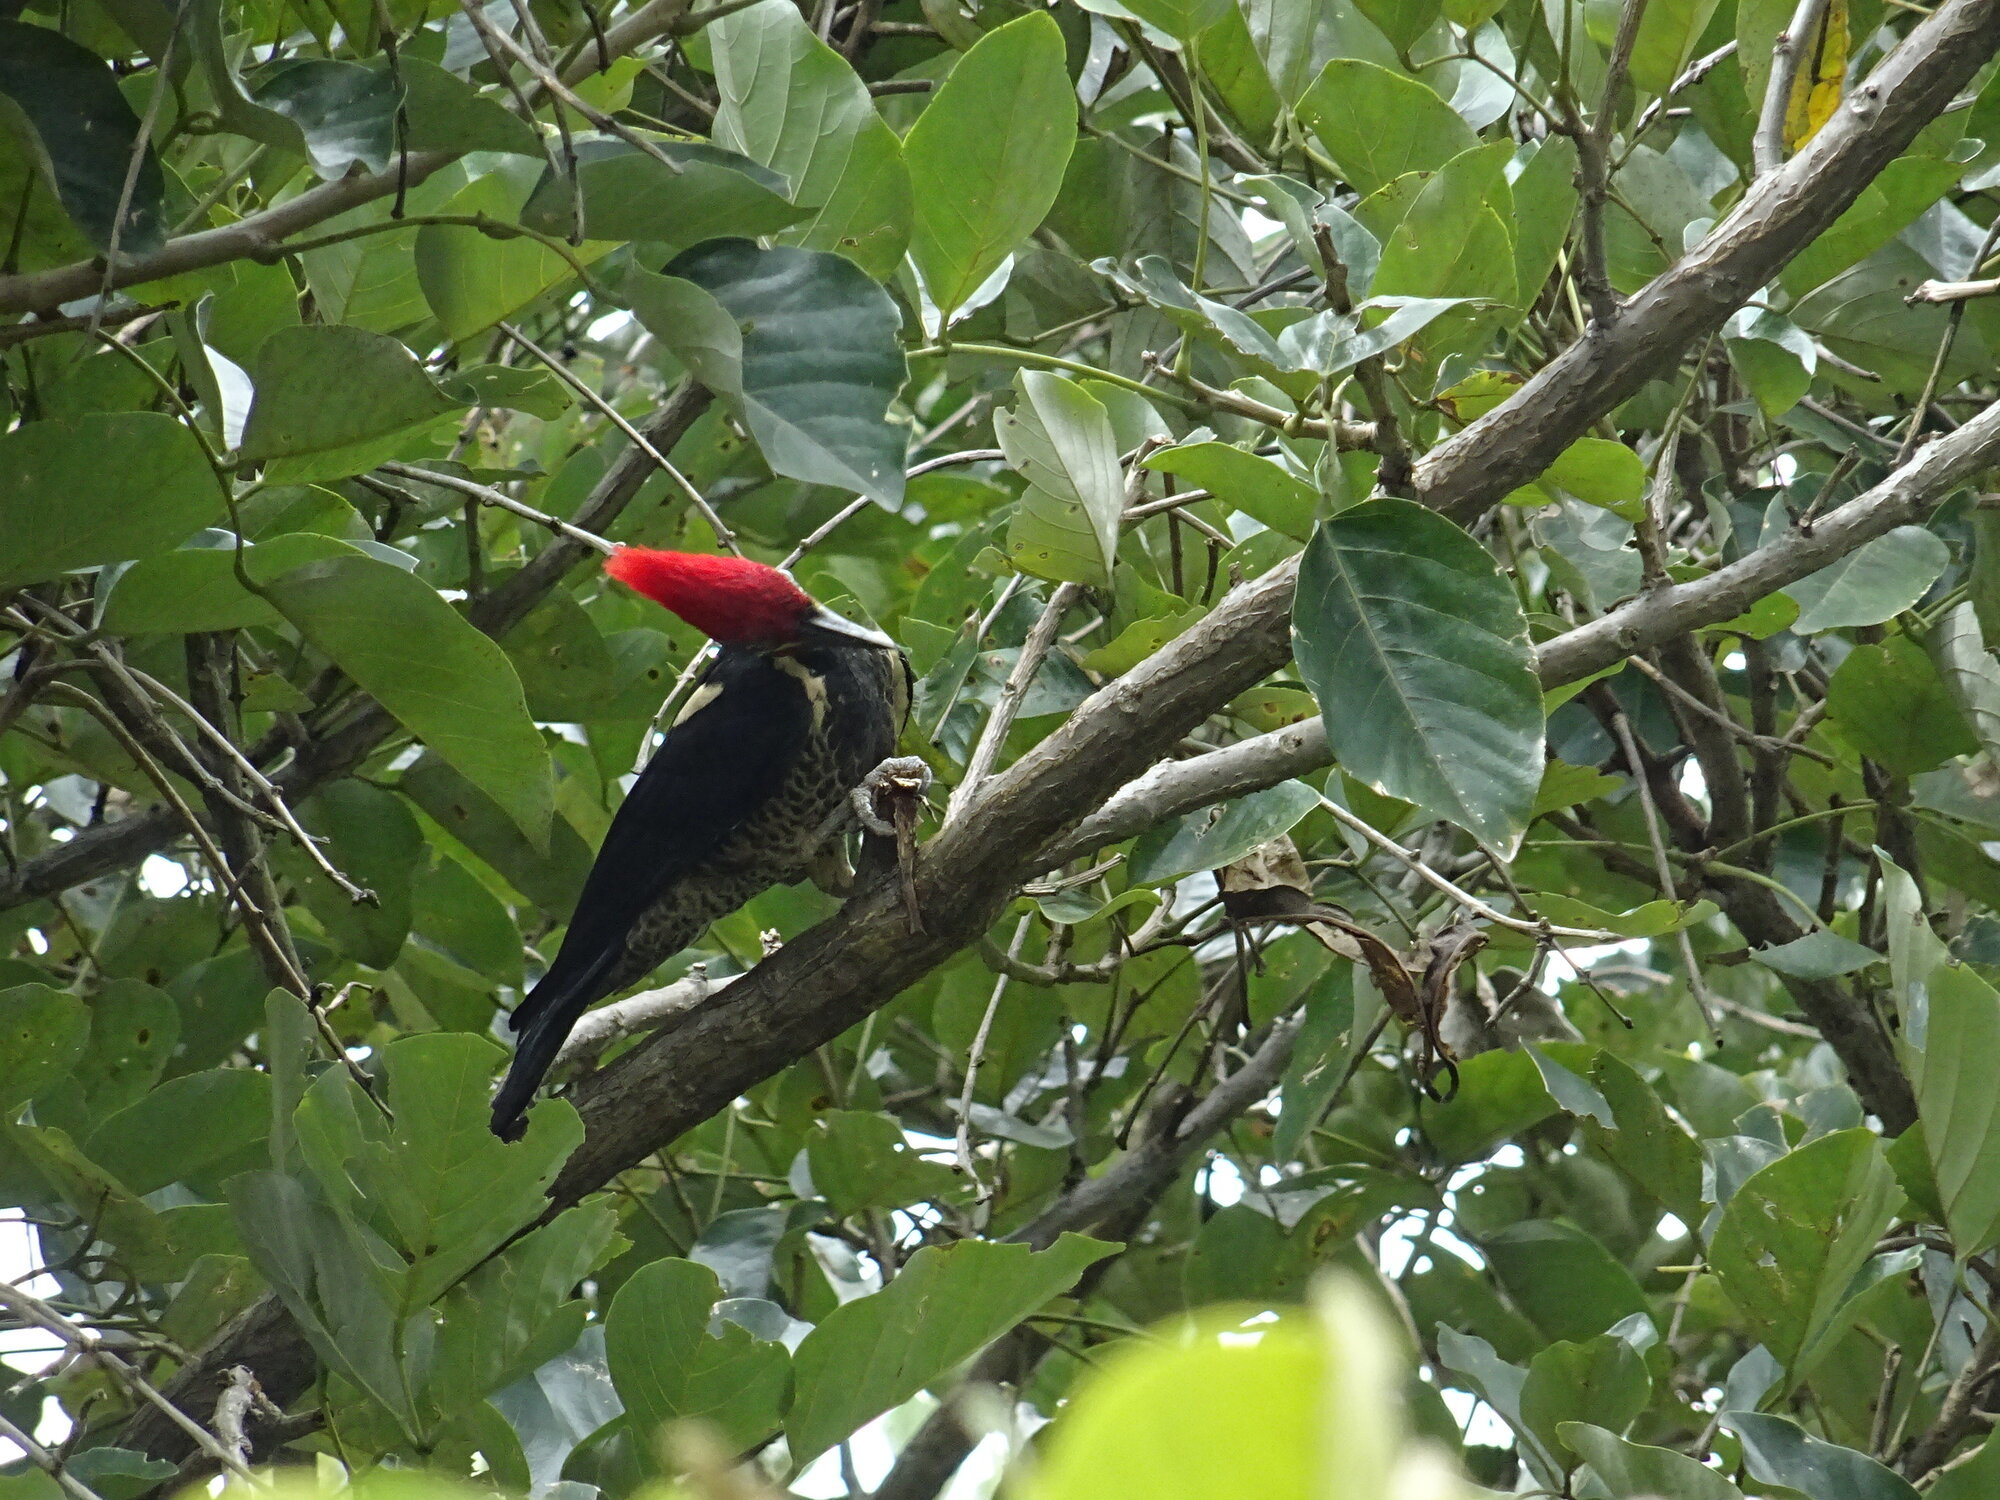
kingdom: Animalia
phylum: Chordata
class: Aves
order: Piciformes
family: Picidae
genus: Dryocopus
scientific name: Dryocopus lineatus
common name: Lineated woodpecker
